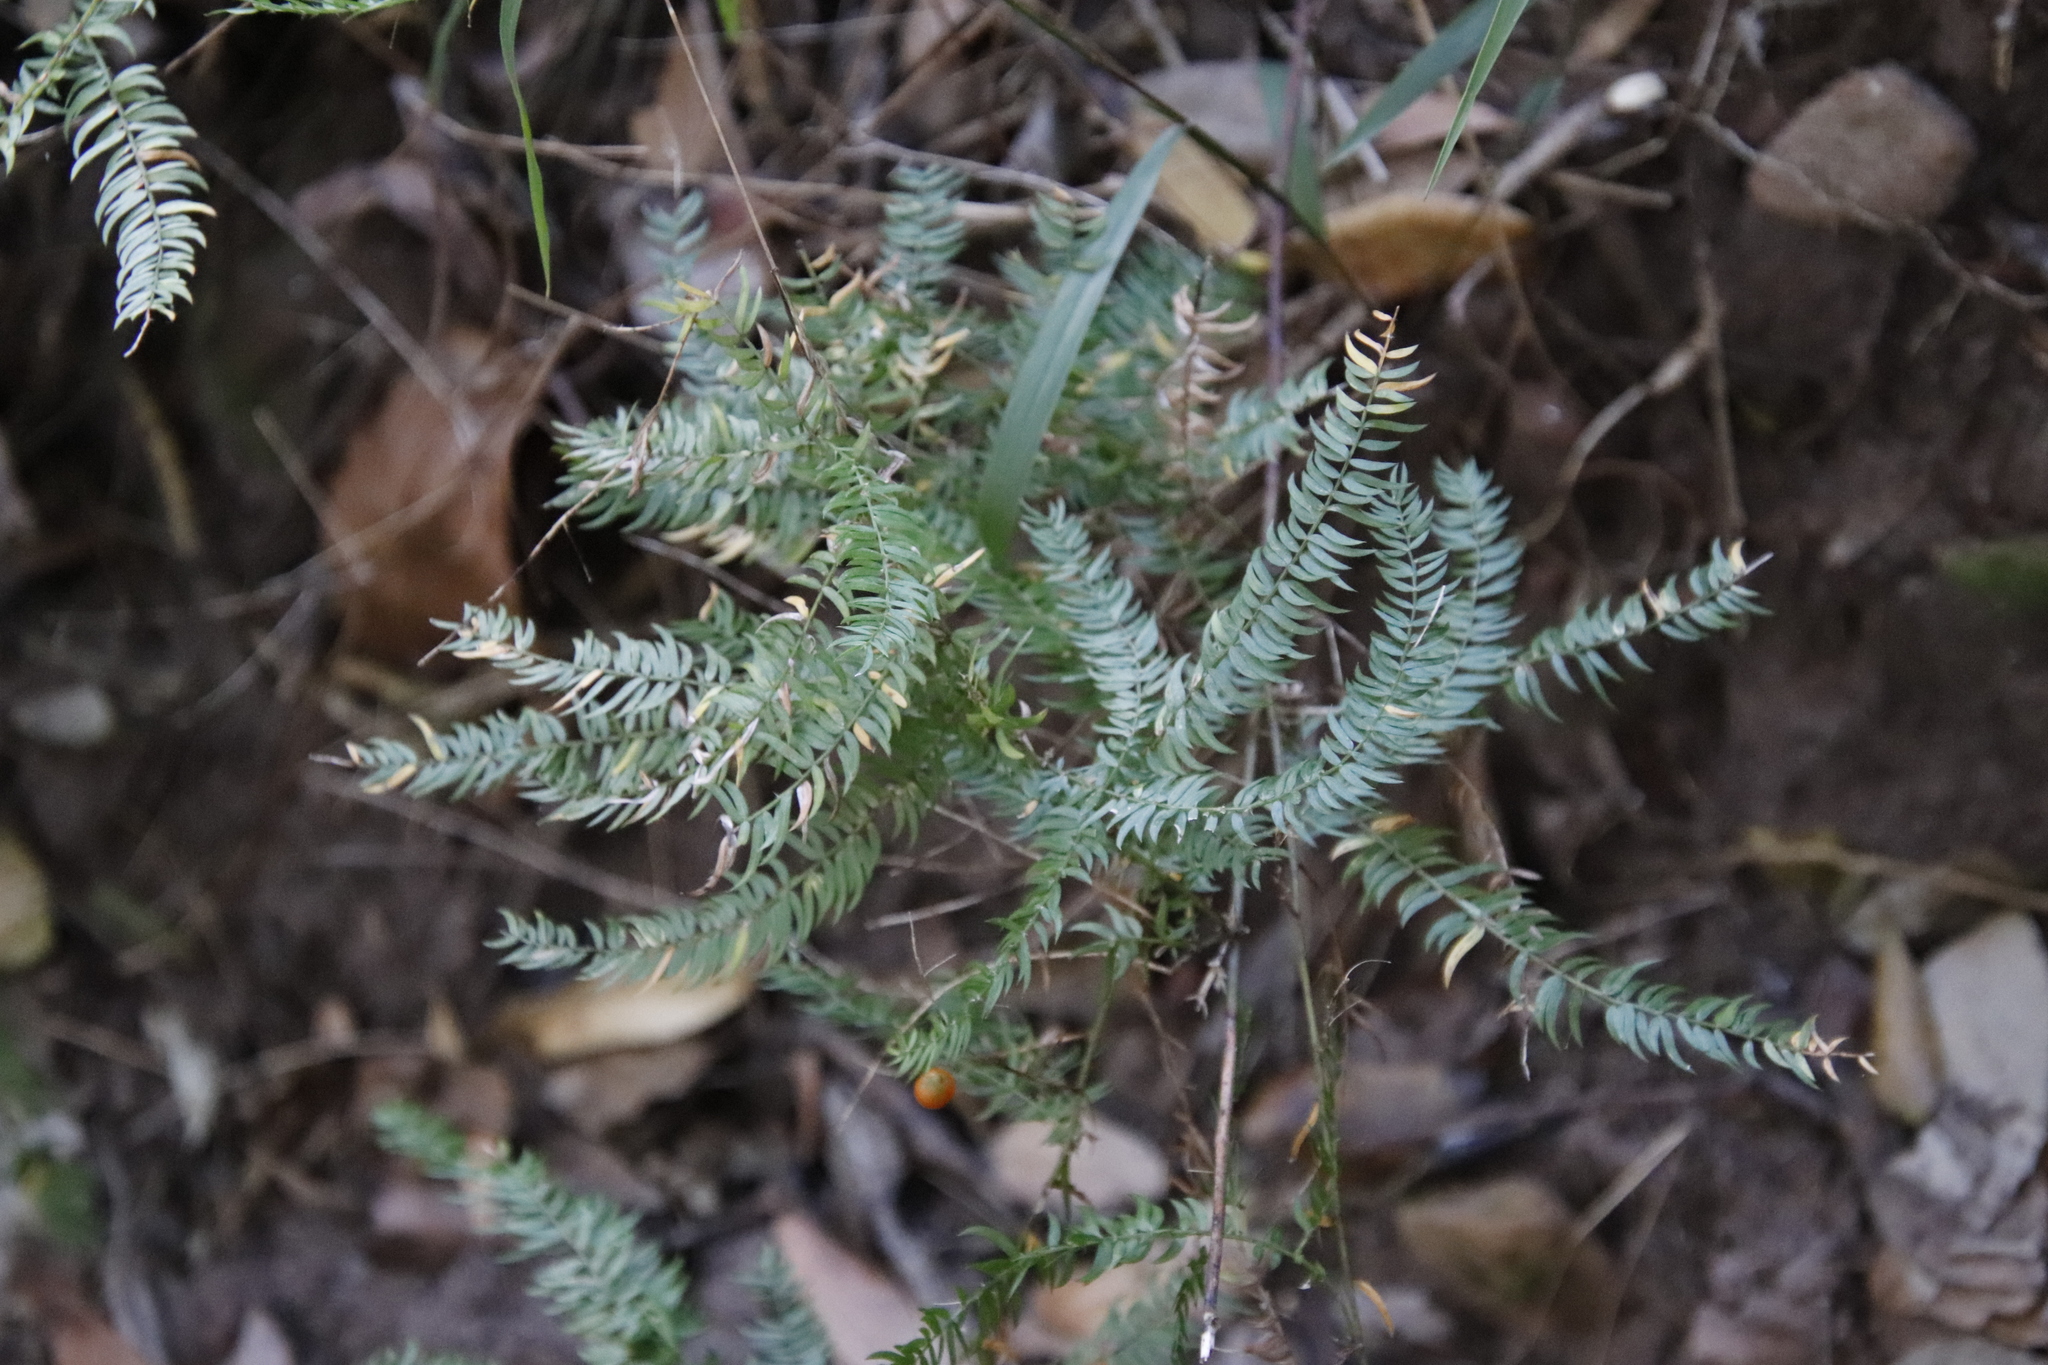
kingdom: Plantae
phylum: Tracheophyta
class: Liliopsida
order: Asparagales
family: Asparagaceae
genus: Asparagus
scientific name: Asparagus scandens
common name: Asparagus-fern
